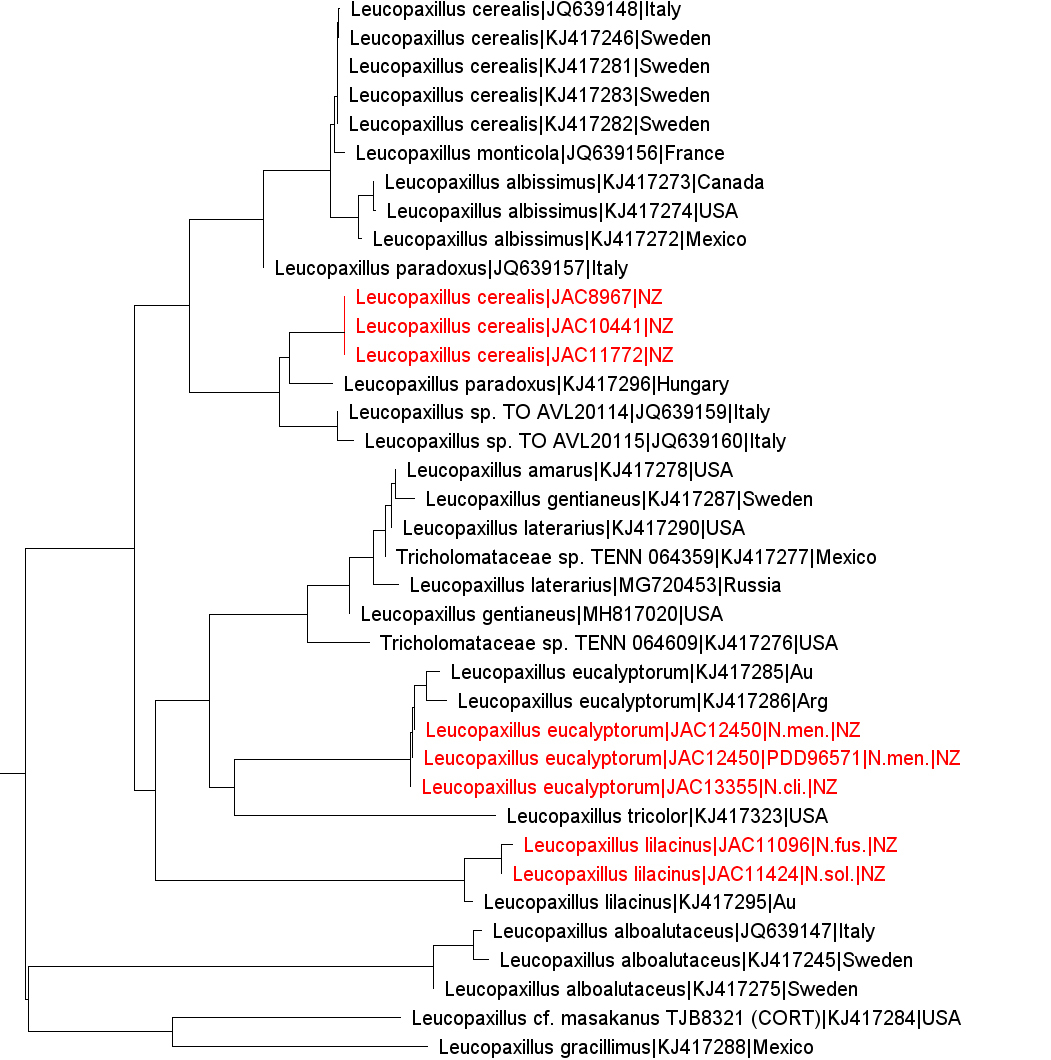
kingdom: Fungi
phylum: Basidiomycota
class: Agaricomycetes
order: Agaricales
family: Tricholomataceae
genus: Leucopaxillus
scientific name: Leucopaxillus paradoxus
